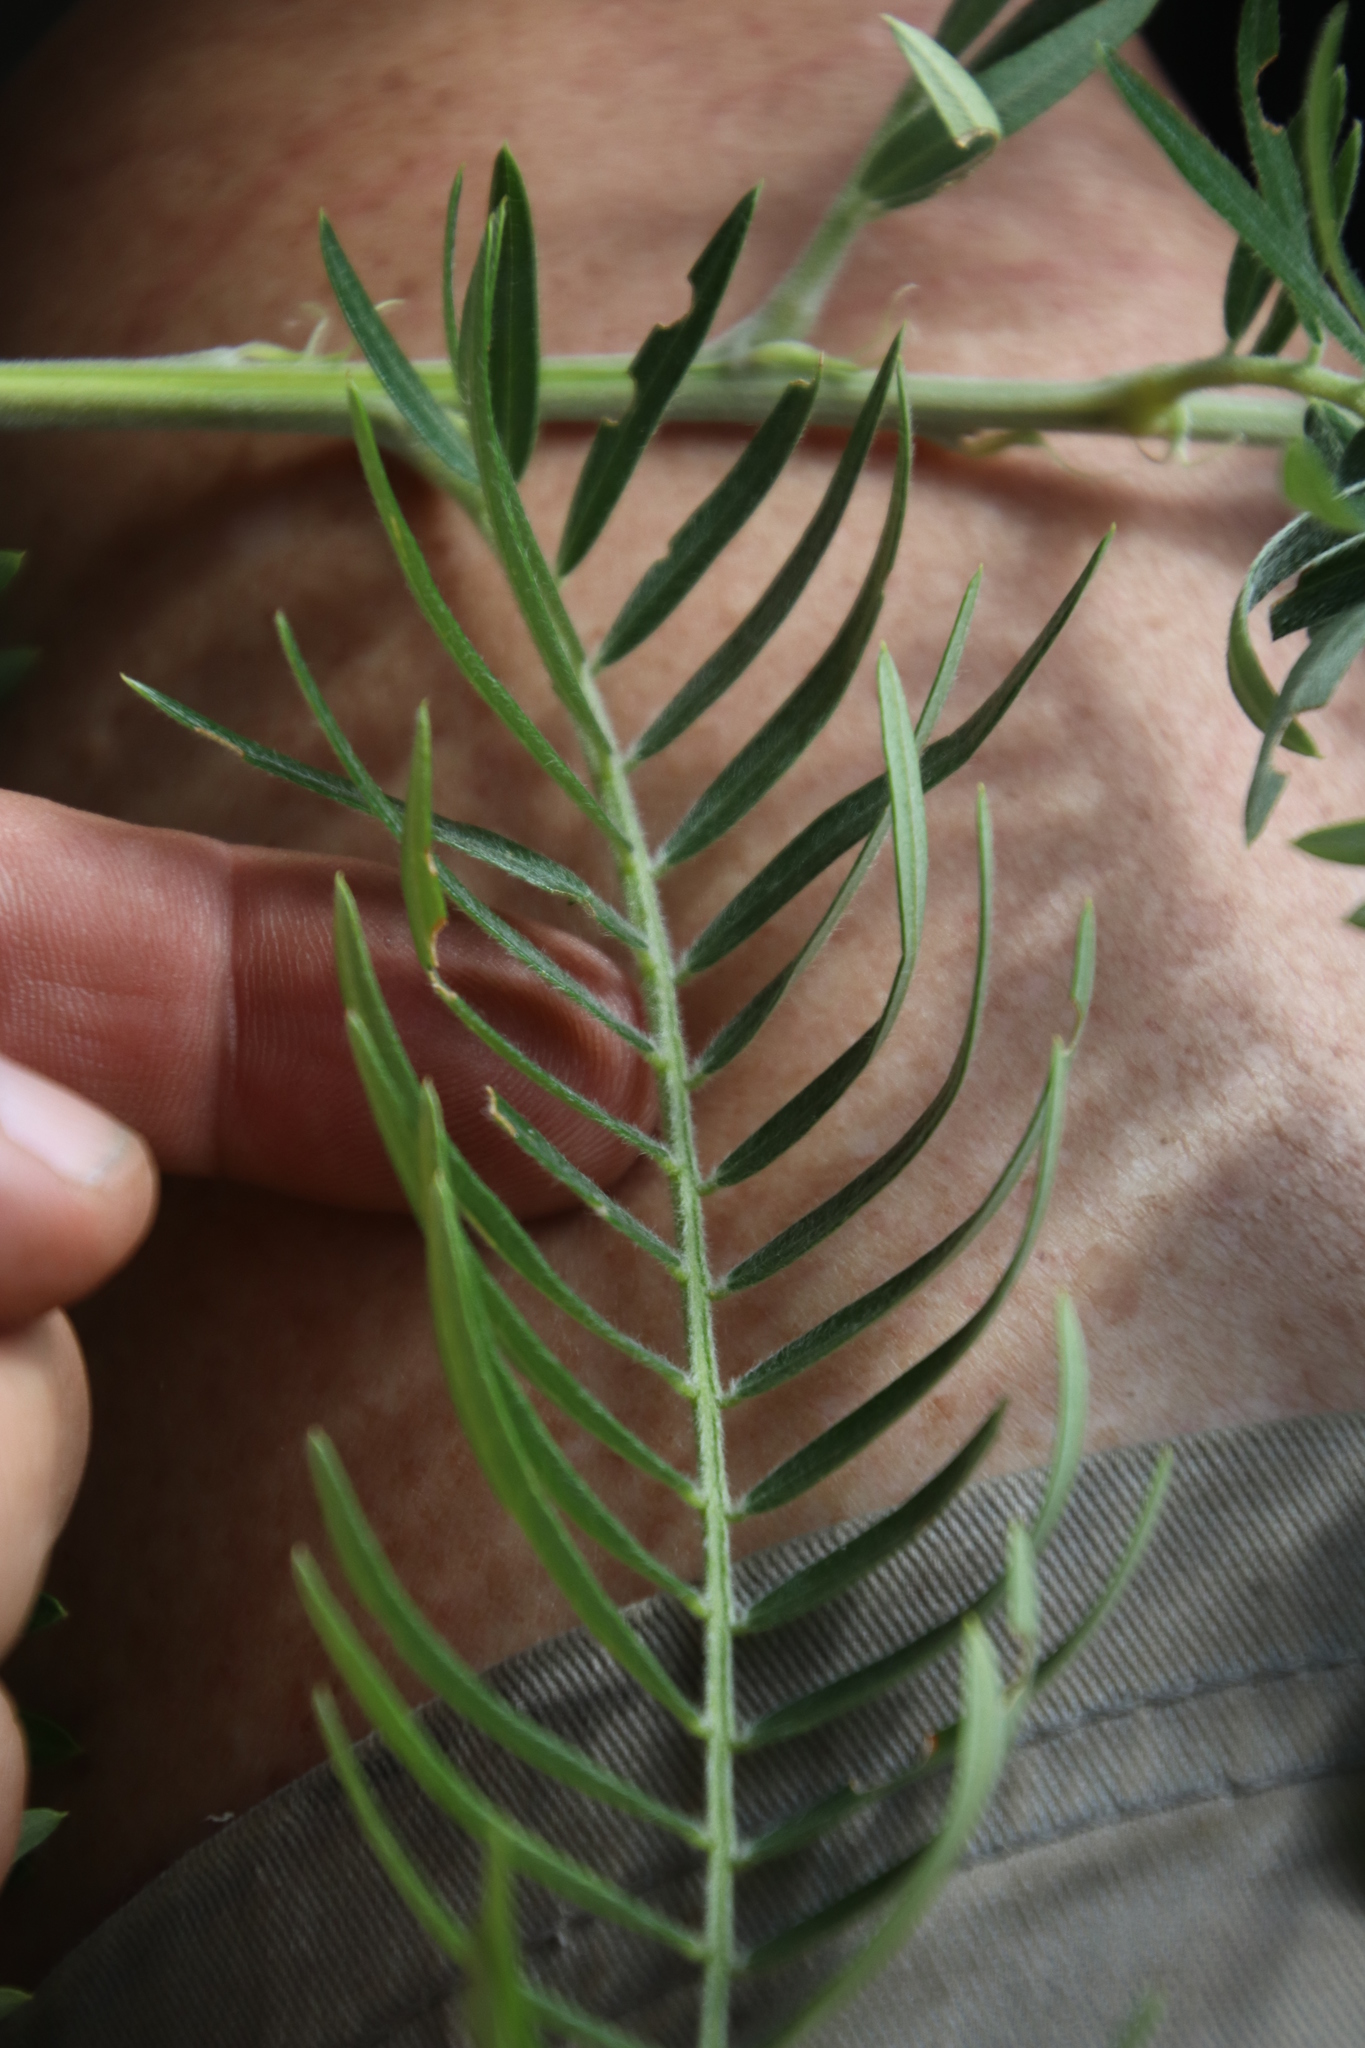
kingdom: Plantae
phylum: Tracheophyta
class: Magnoliopsida
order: Fabales
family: Fabaceae
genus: Virgilia
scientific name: Virgilia oroboides
